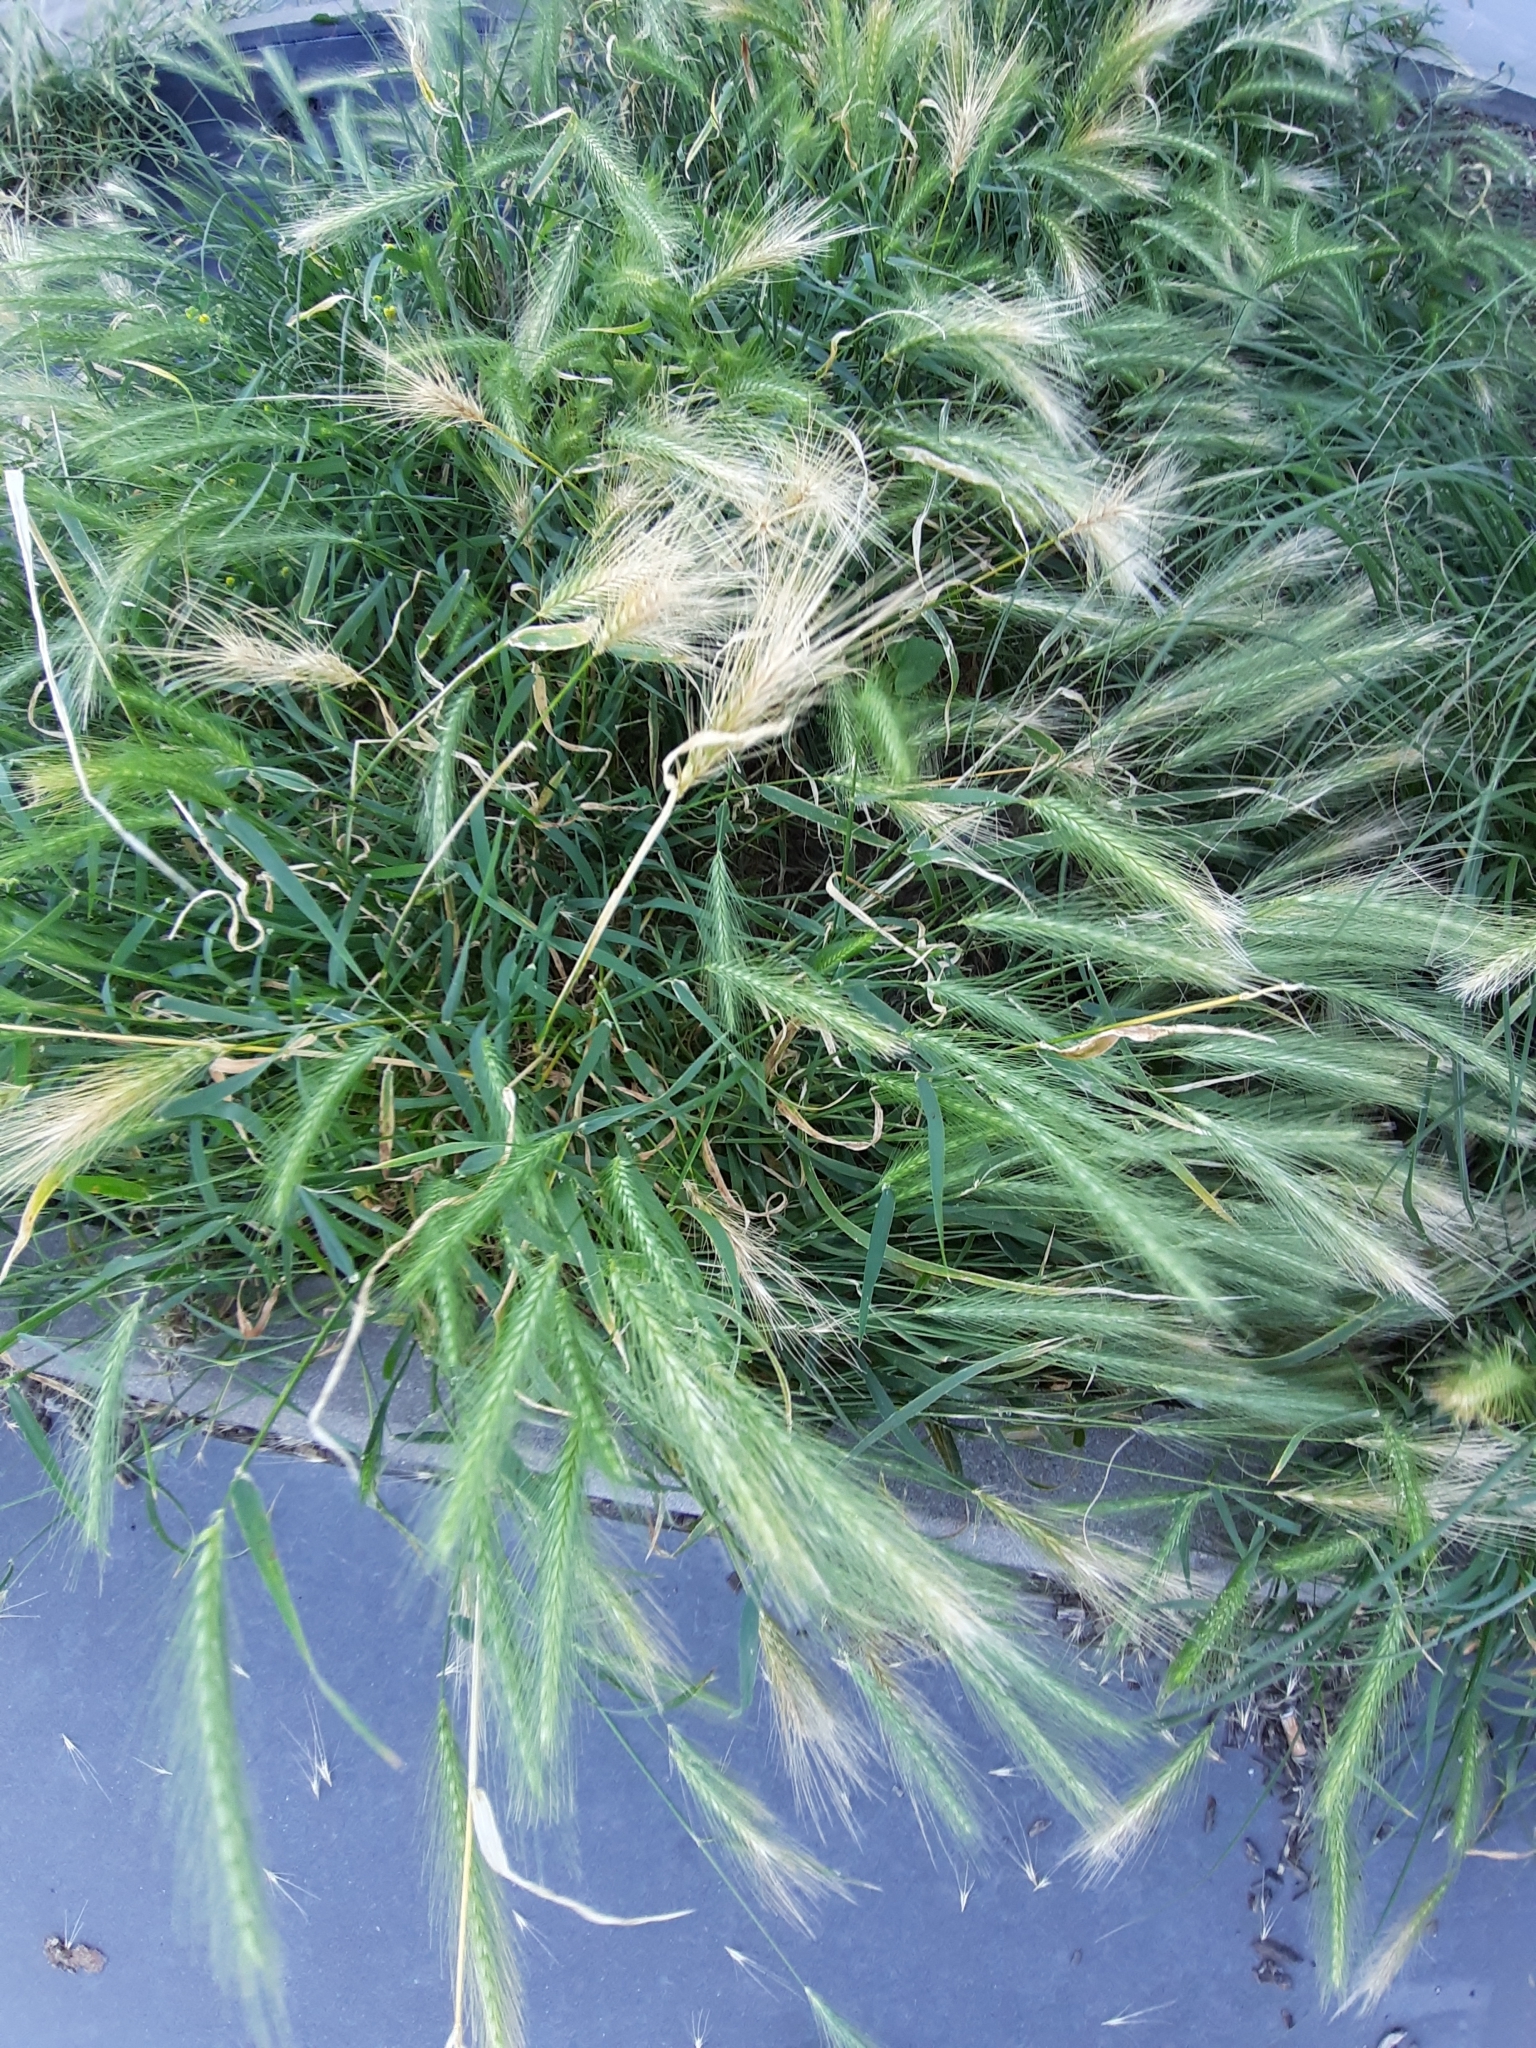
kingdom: Plantae
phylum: Tracheophyta
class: Liliopsida
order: Poales
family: Poaceae
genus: Hordeum
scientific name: Hordeum murinum
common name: Wall barley
